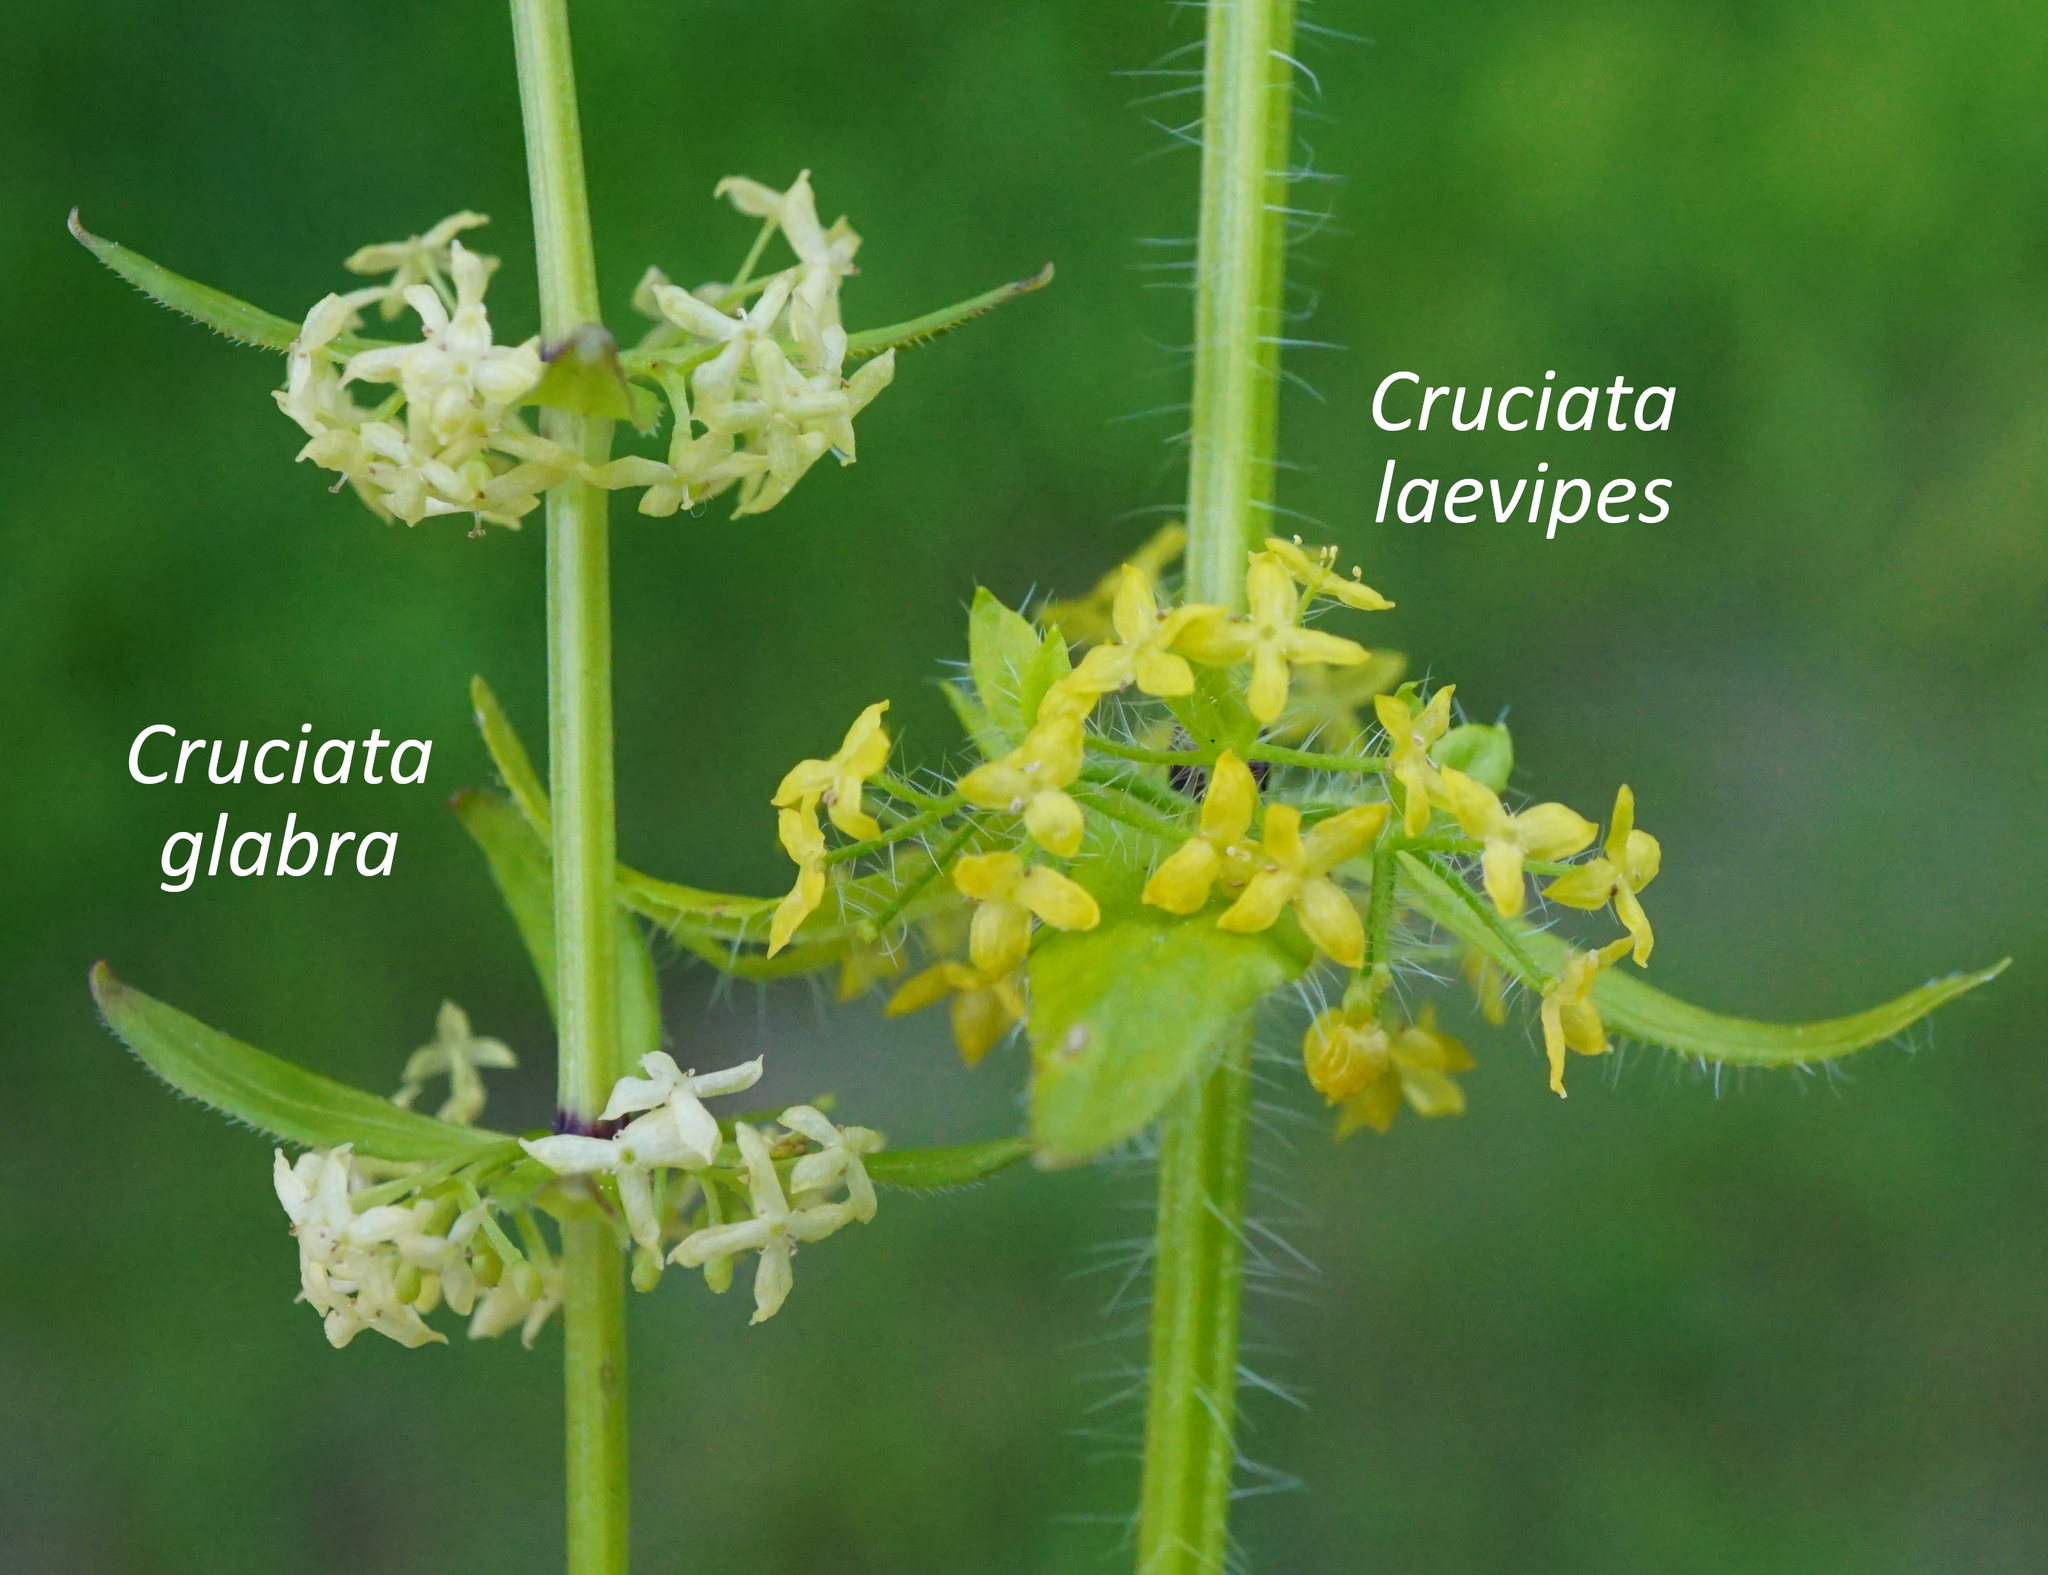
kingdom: Plantae
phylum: Tracheophyta
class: Magnoliopsida
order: Gentianales
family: Rubiaceae
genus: Cruciata
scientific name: Cruciata laevipes
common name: Crosswort
